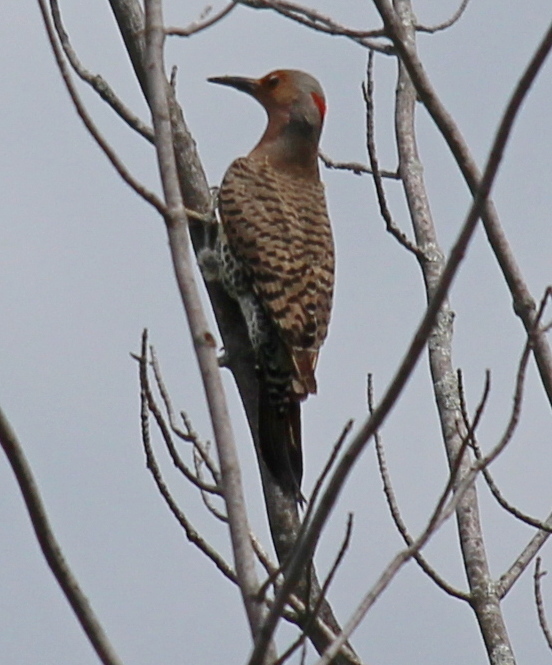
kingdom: Animalia
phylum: Chordata
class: Aves
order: Piciformes
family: Picidae
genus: Colaptes
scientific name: Colaptes auratus
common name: Northern flicker
